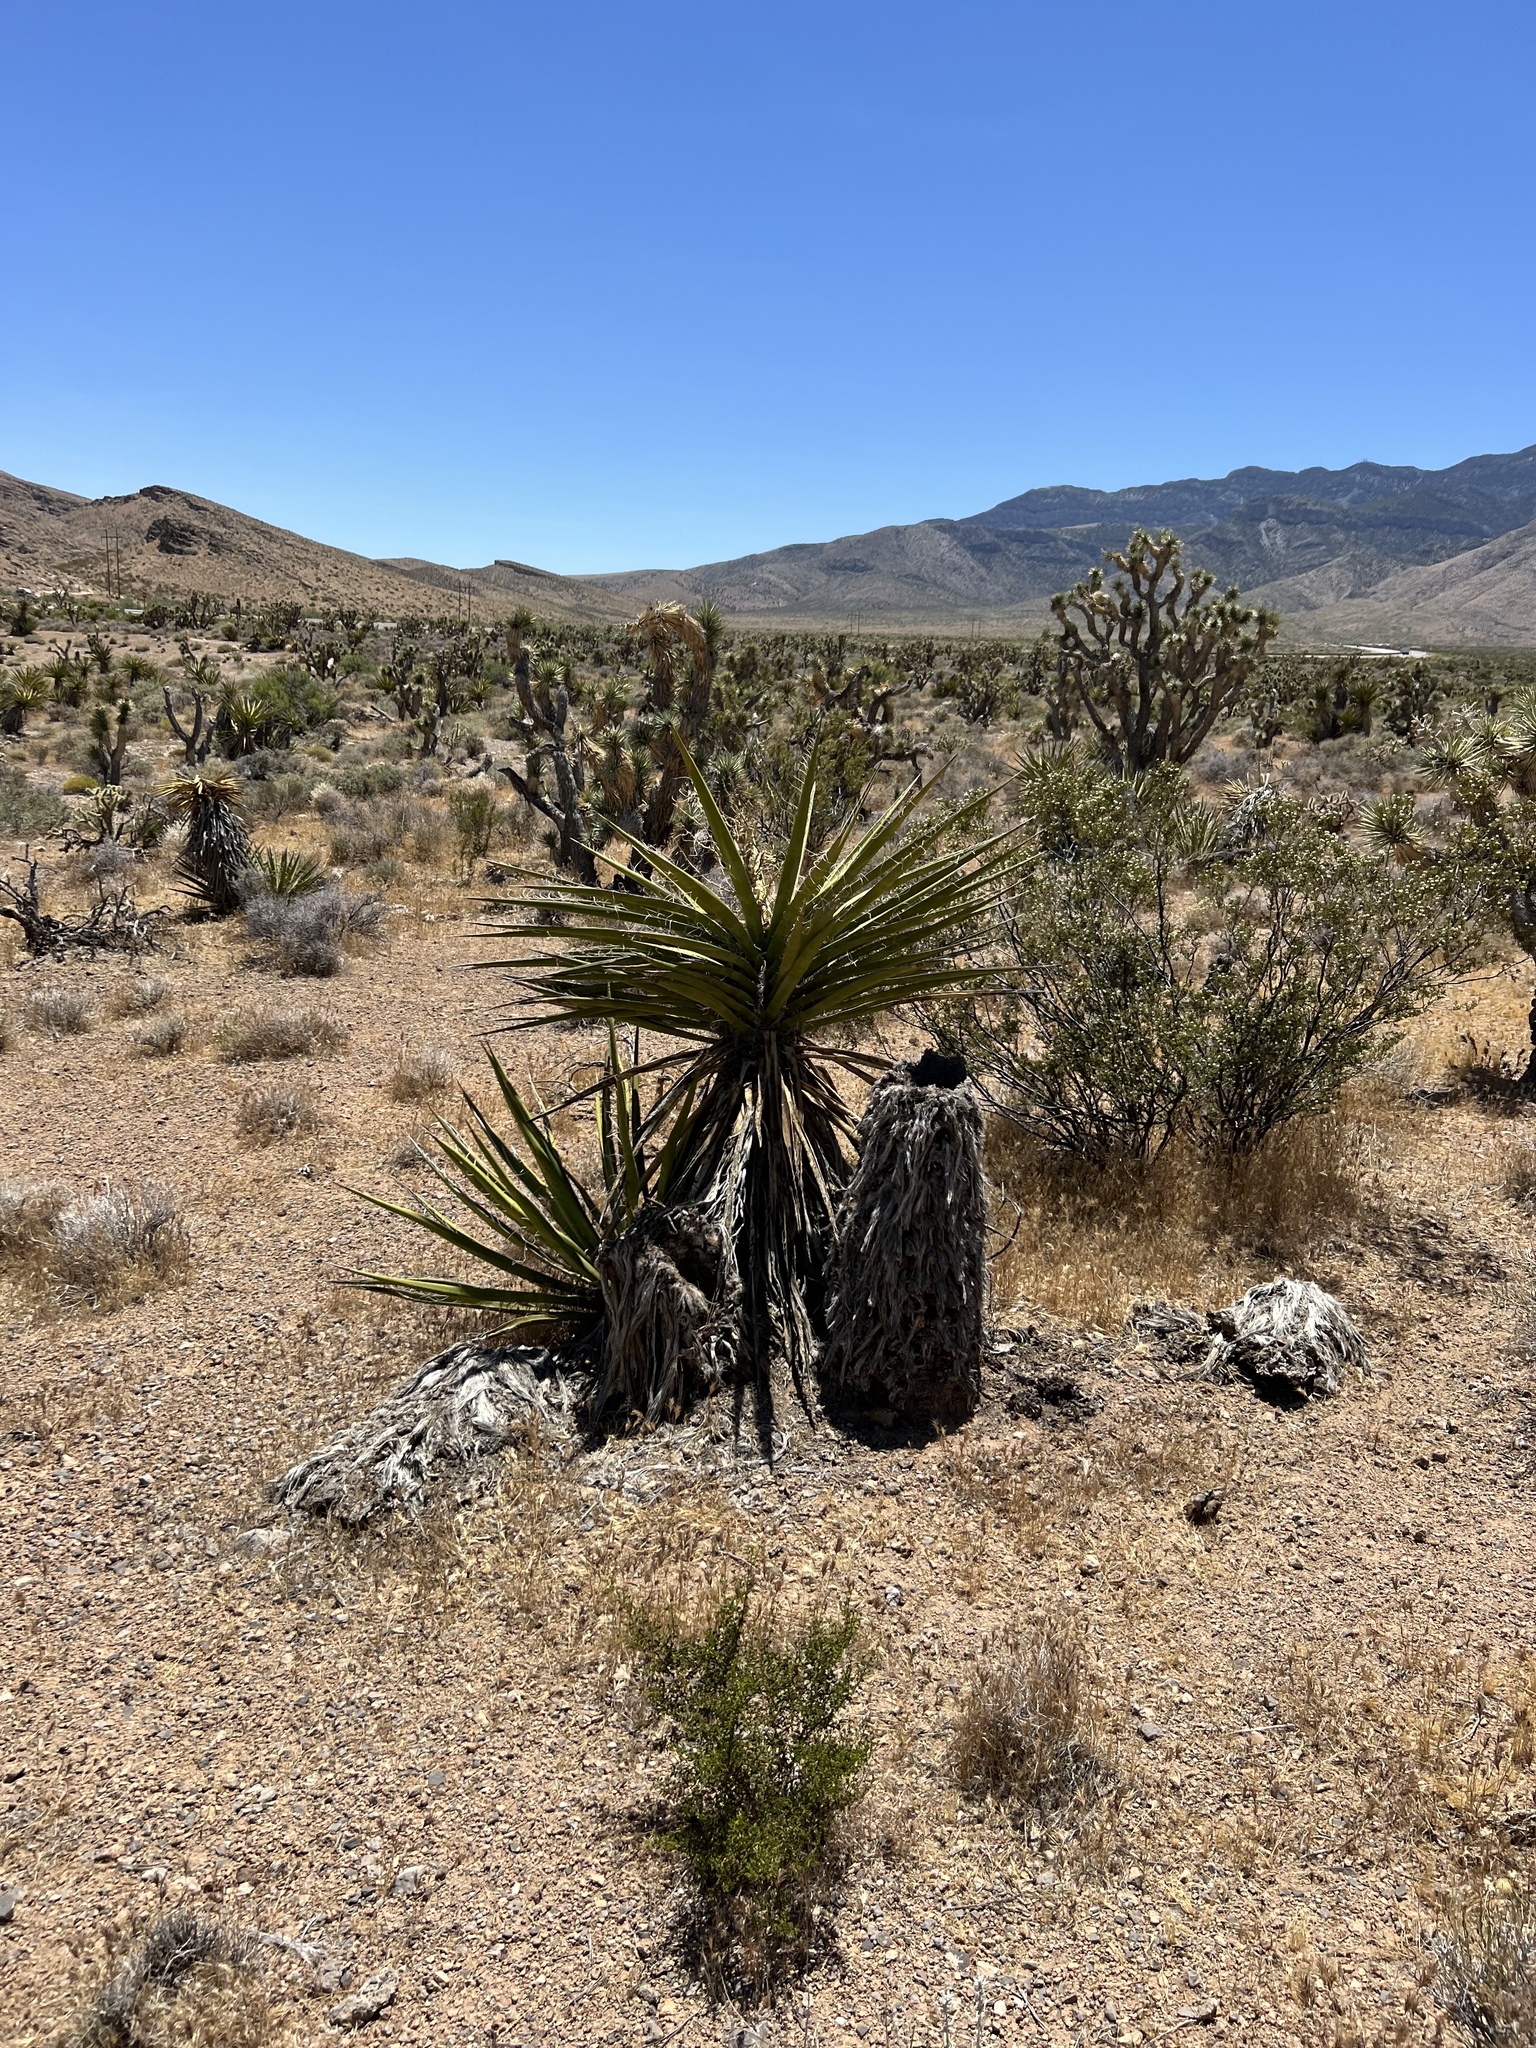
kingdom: Plantae
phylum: Tracheophyta
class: Liliopsida
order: Asparagales
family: Asparagaceae
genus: Yucca
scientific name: Yucca schidigera
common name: Mojave yucca
